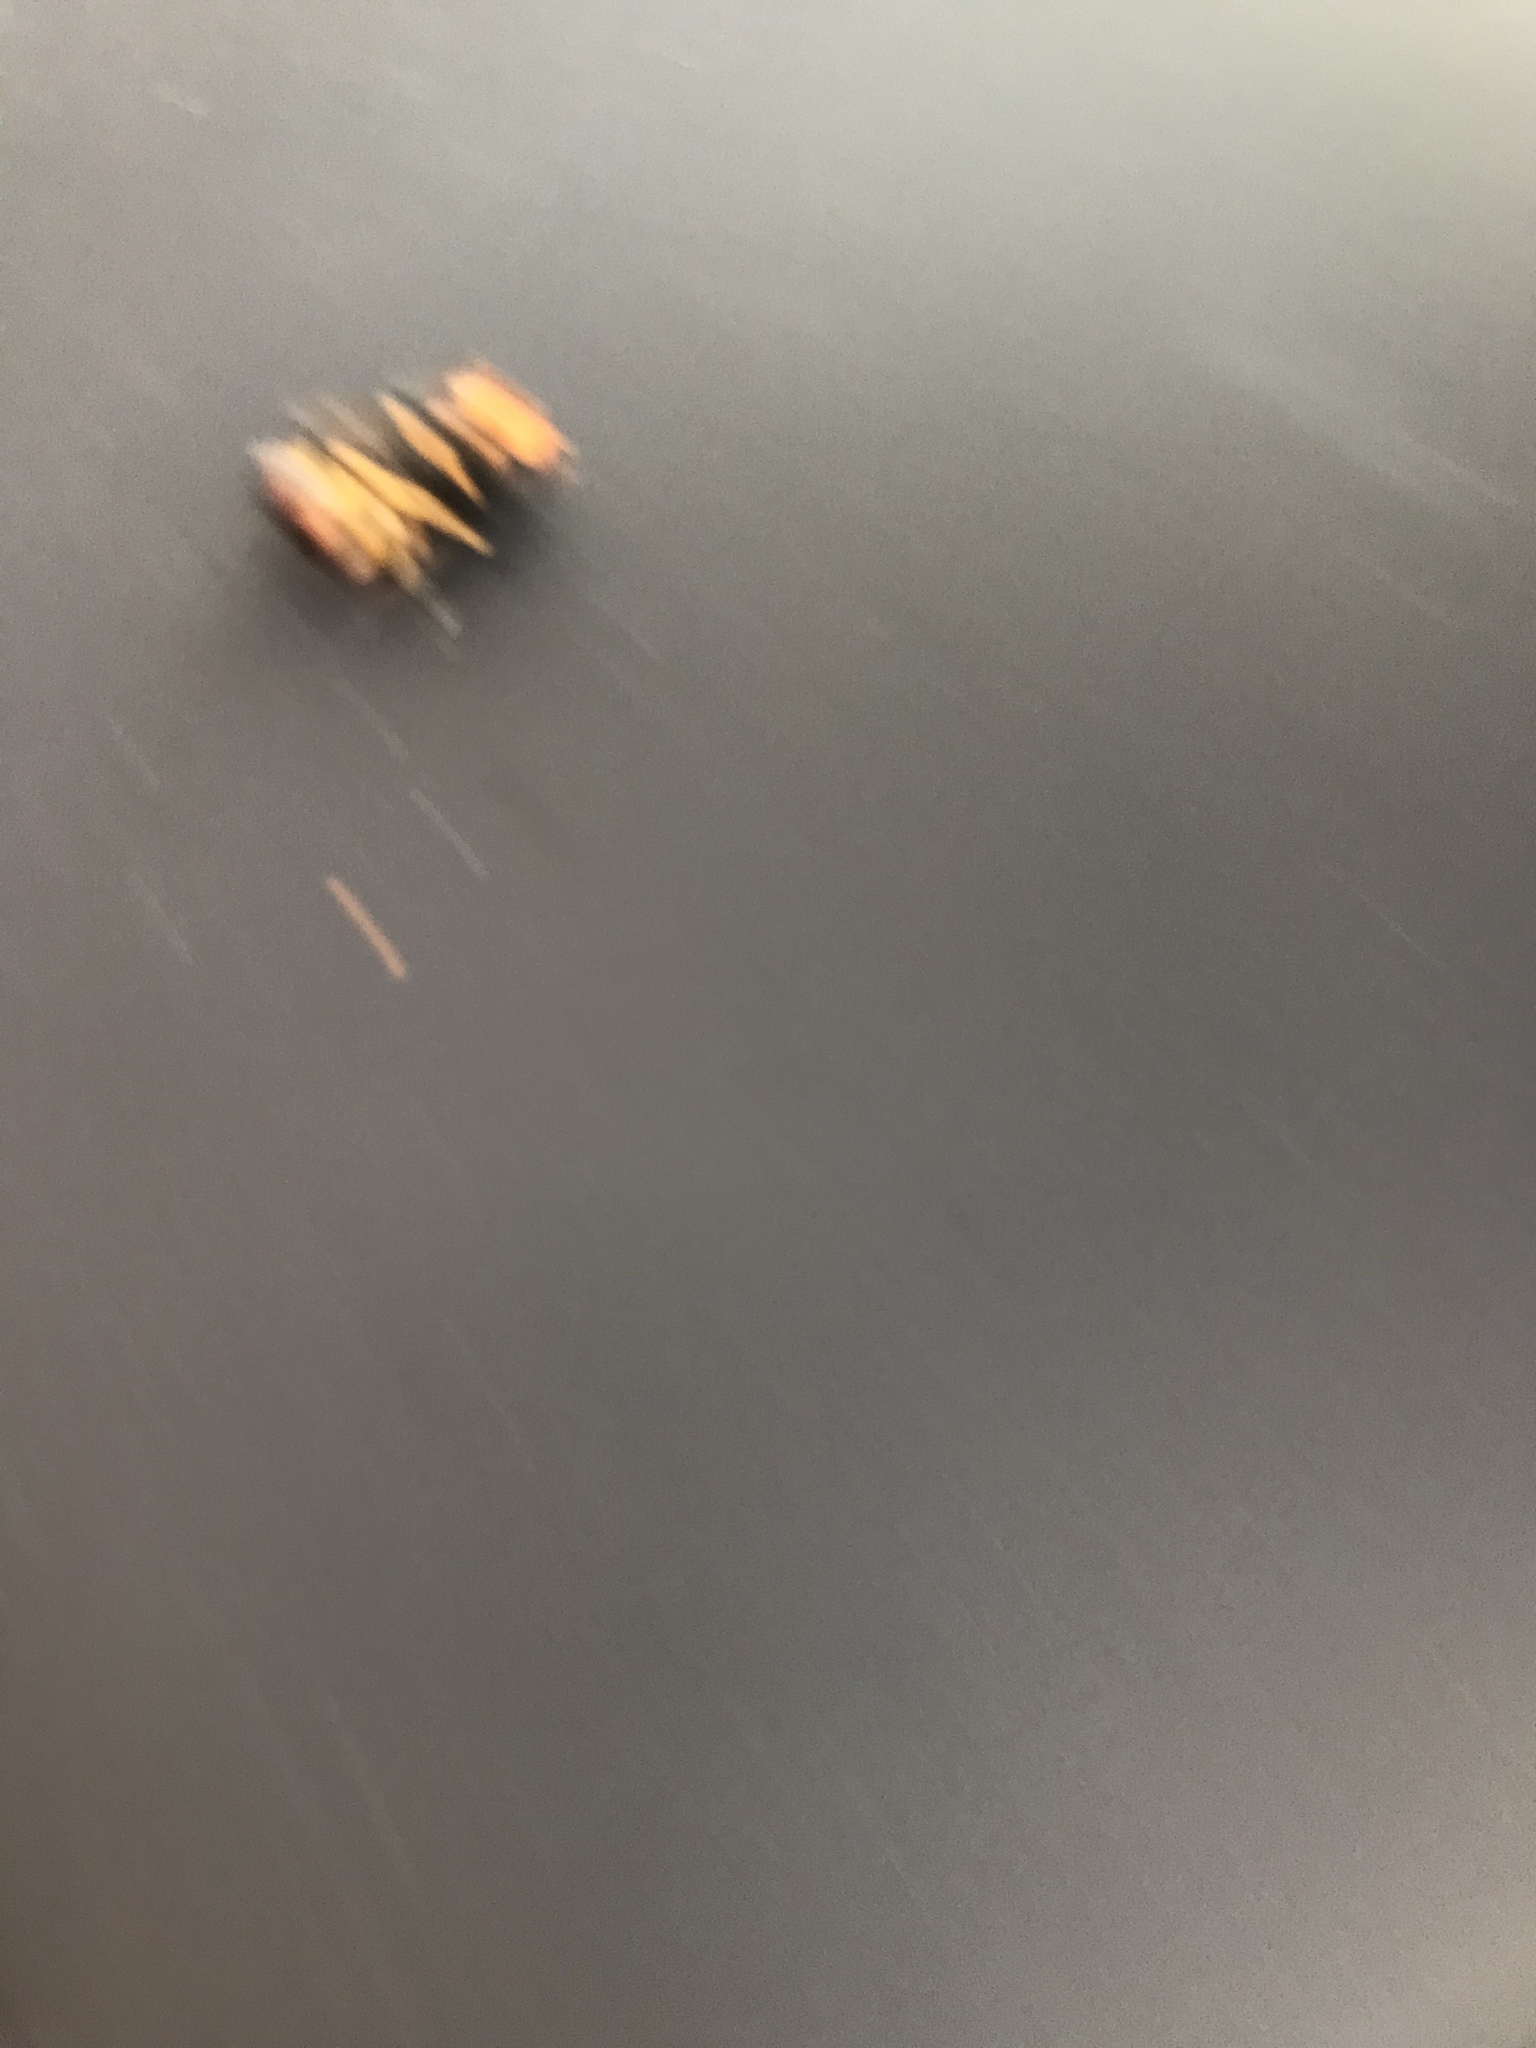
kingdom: Animalia
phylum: Arthropoda
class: Insecta
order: Hymenoptera
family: Vespidae
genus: Vespa
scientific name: Vespa velutina
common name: Asian hornet
